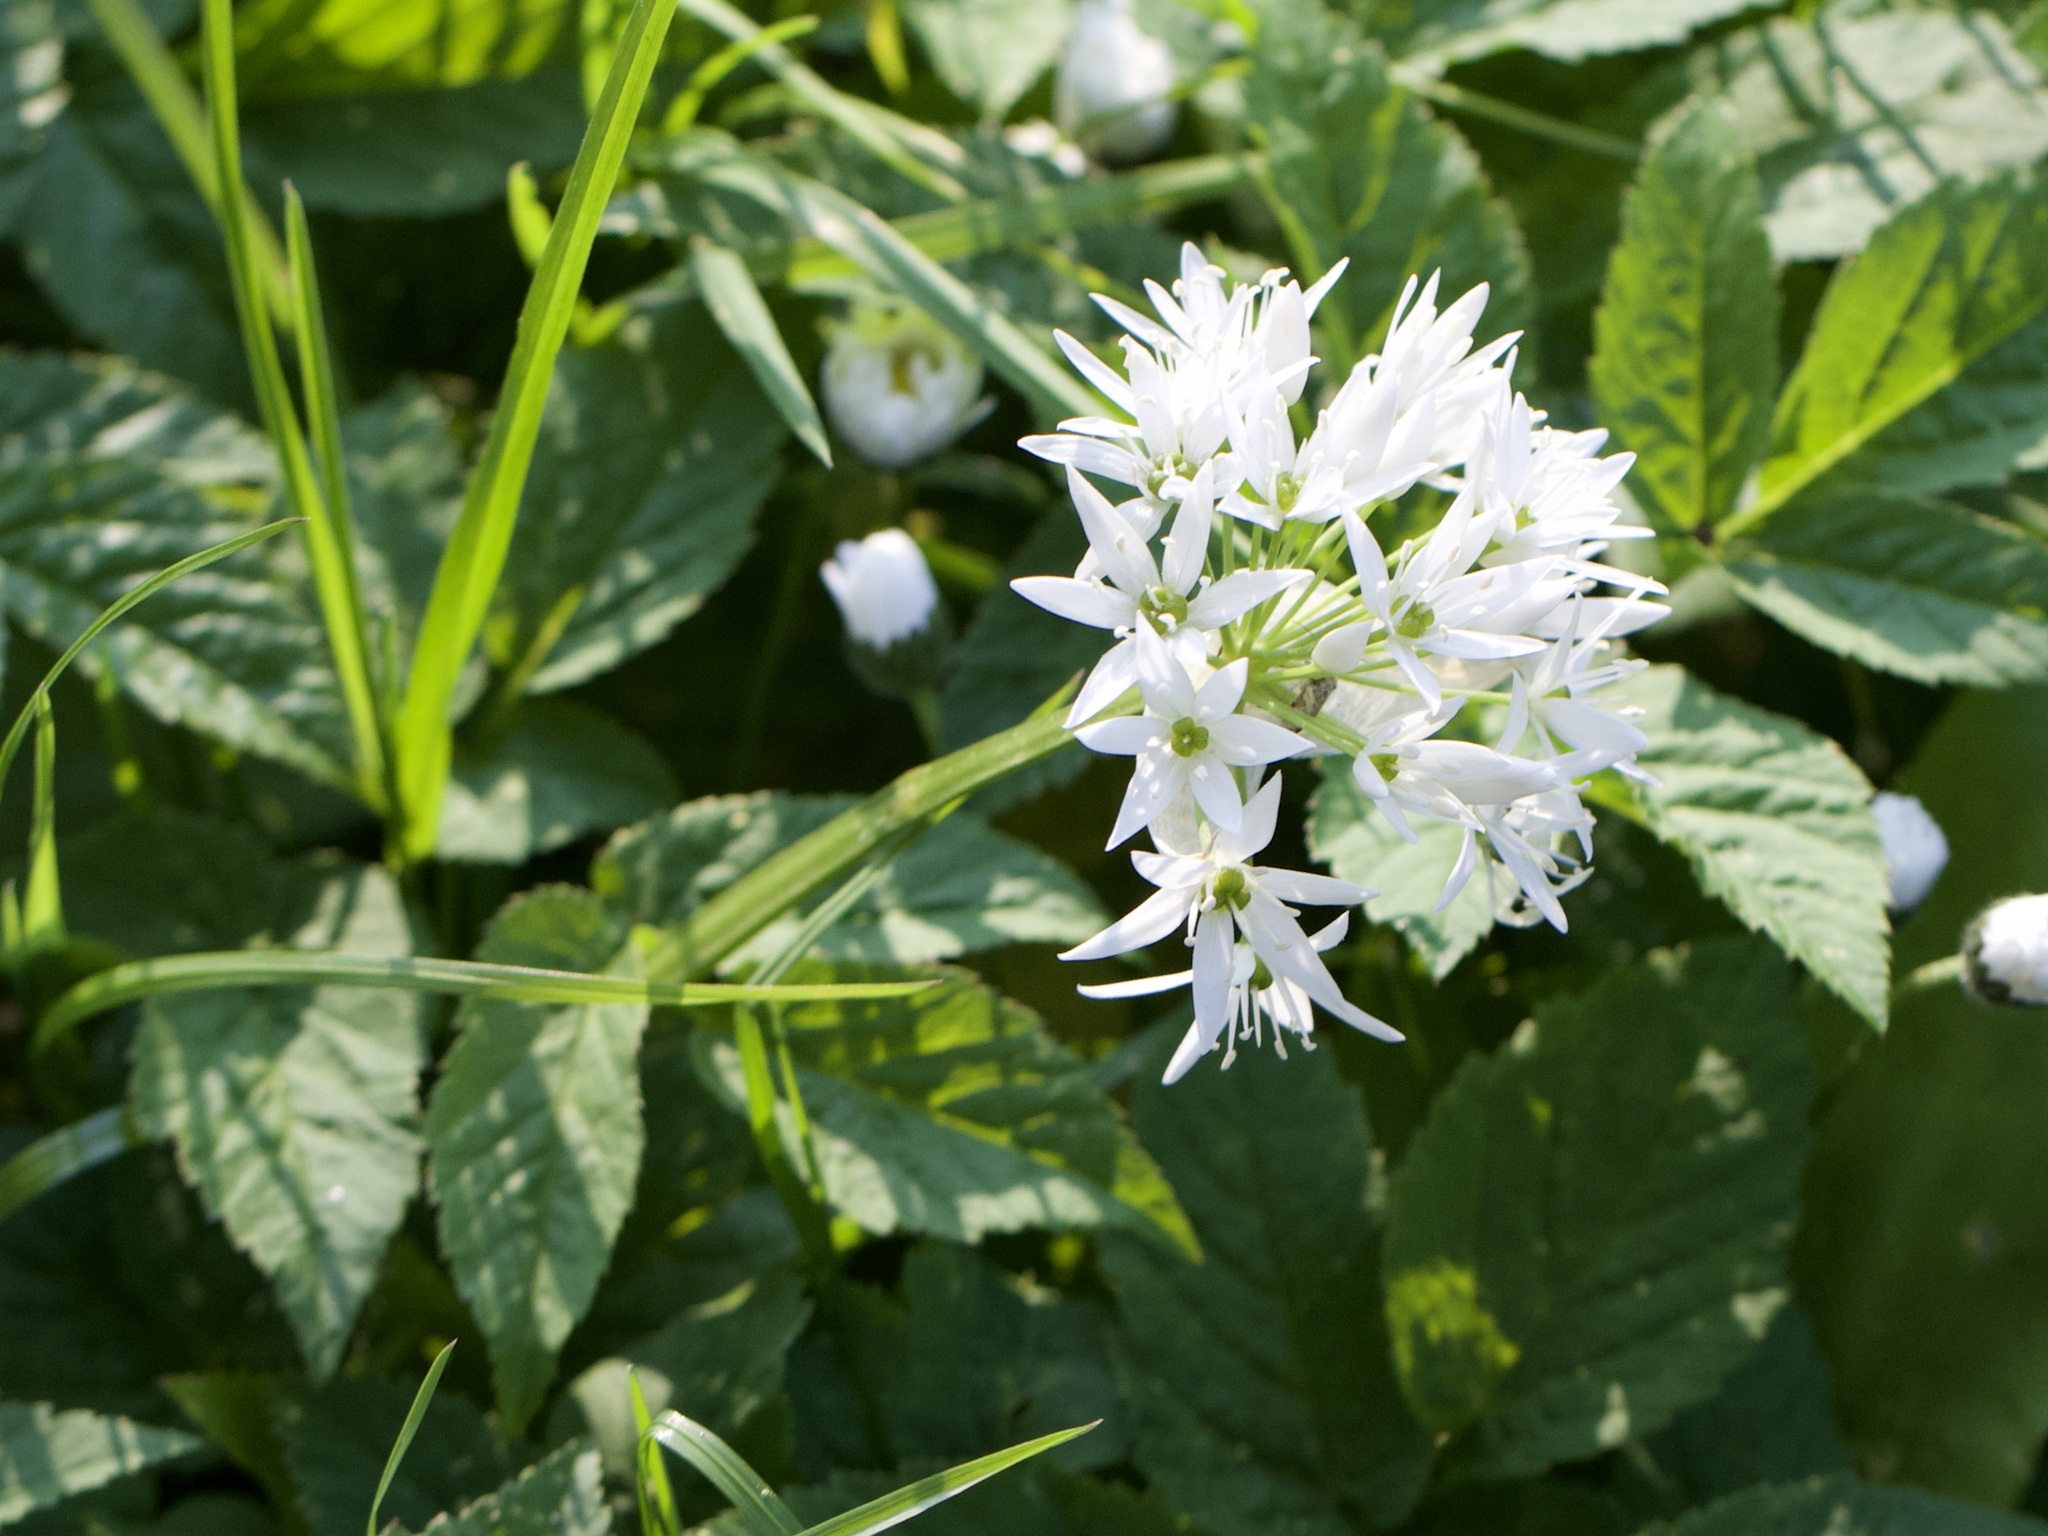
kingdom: Plantae
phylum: Tracheophyta
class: Liliopsida
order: Asparagales
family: Amaryllidaceae
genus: Allium
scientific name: Allium ursinum
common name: Ramsons
